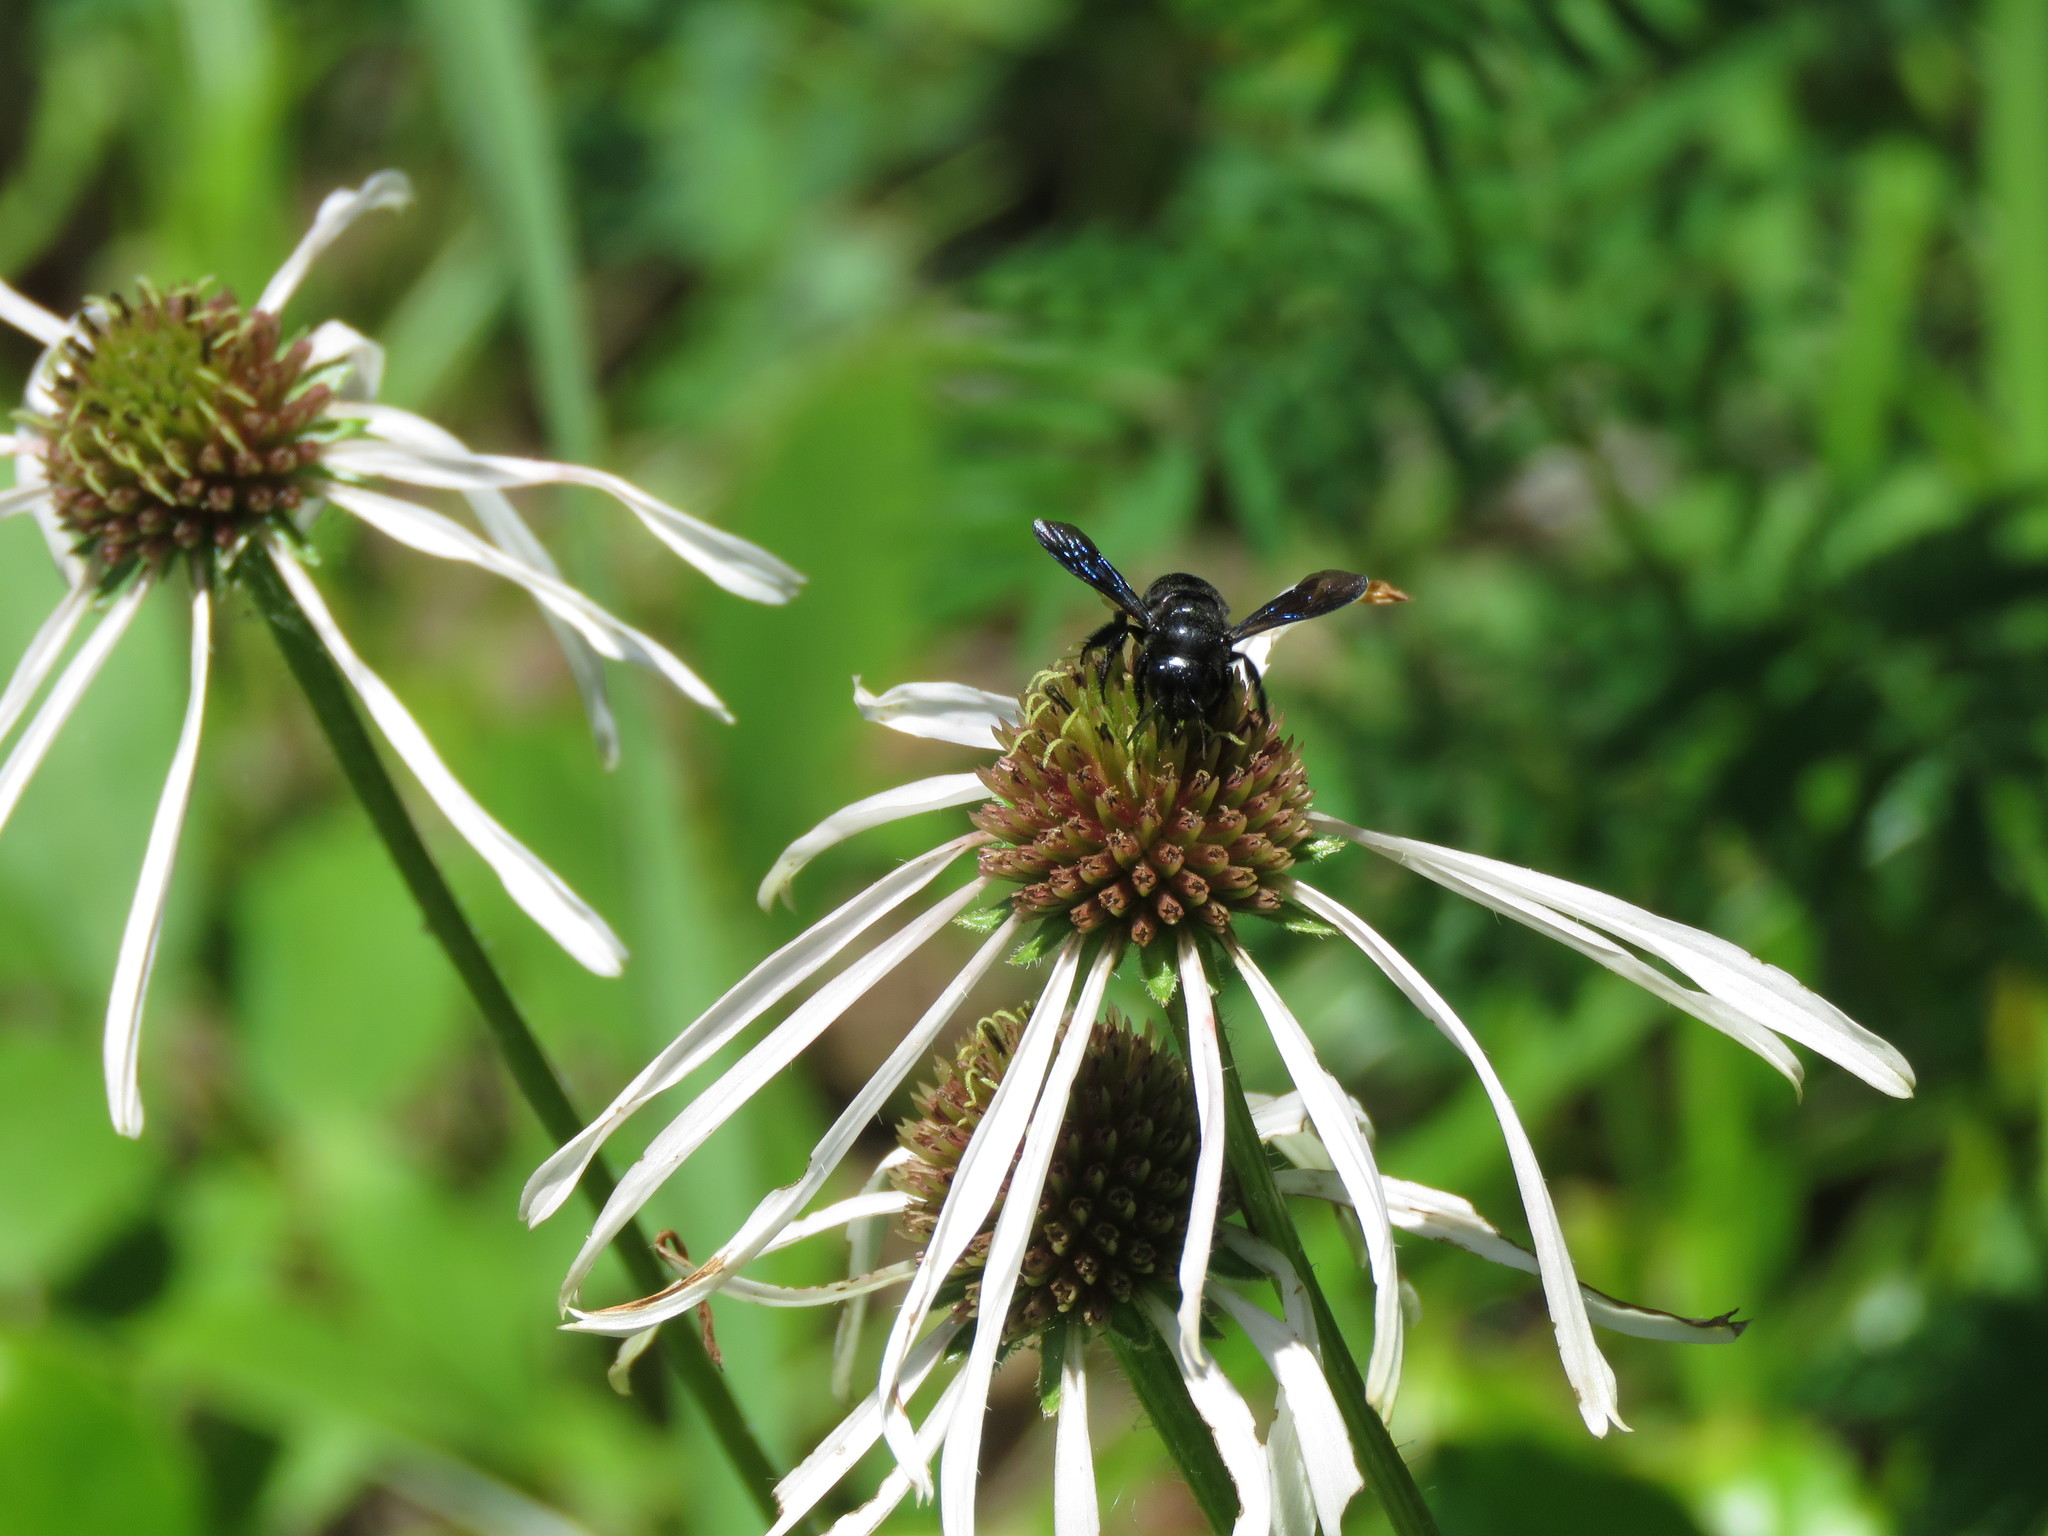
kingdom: Plantae
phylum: Tracheophyta
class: Magnoliopsida
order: Asterales
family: Asteraceae
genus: Echinacea
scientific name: Echinacea pallida
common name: Pale echinacea
